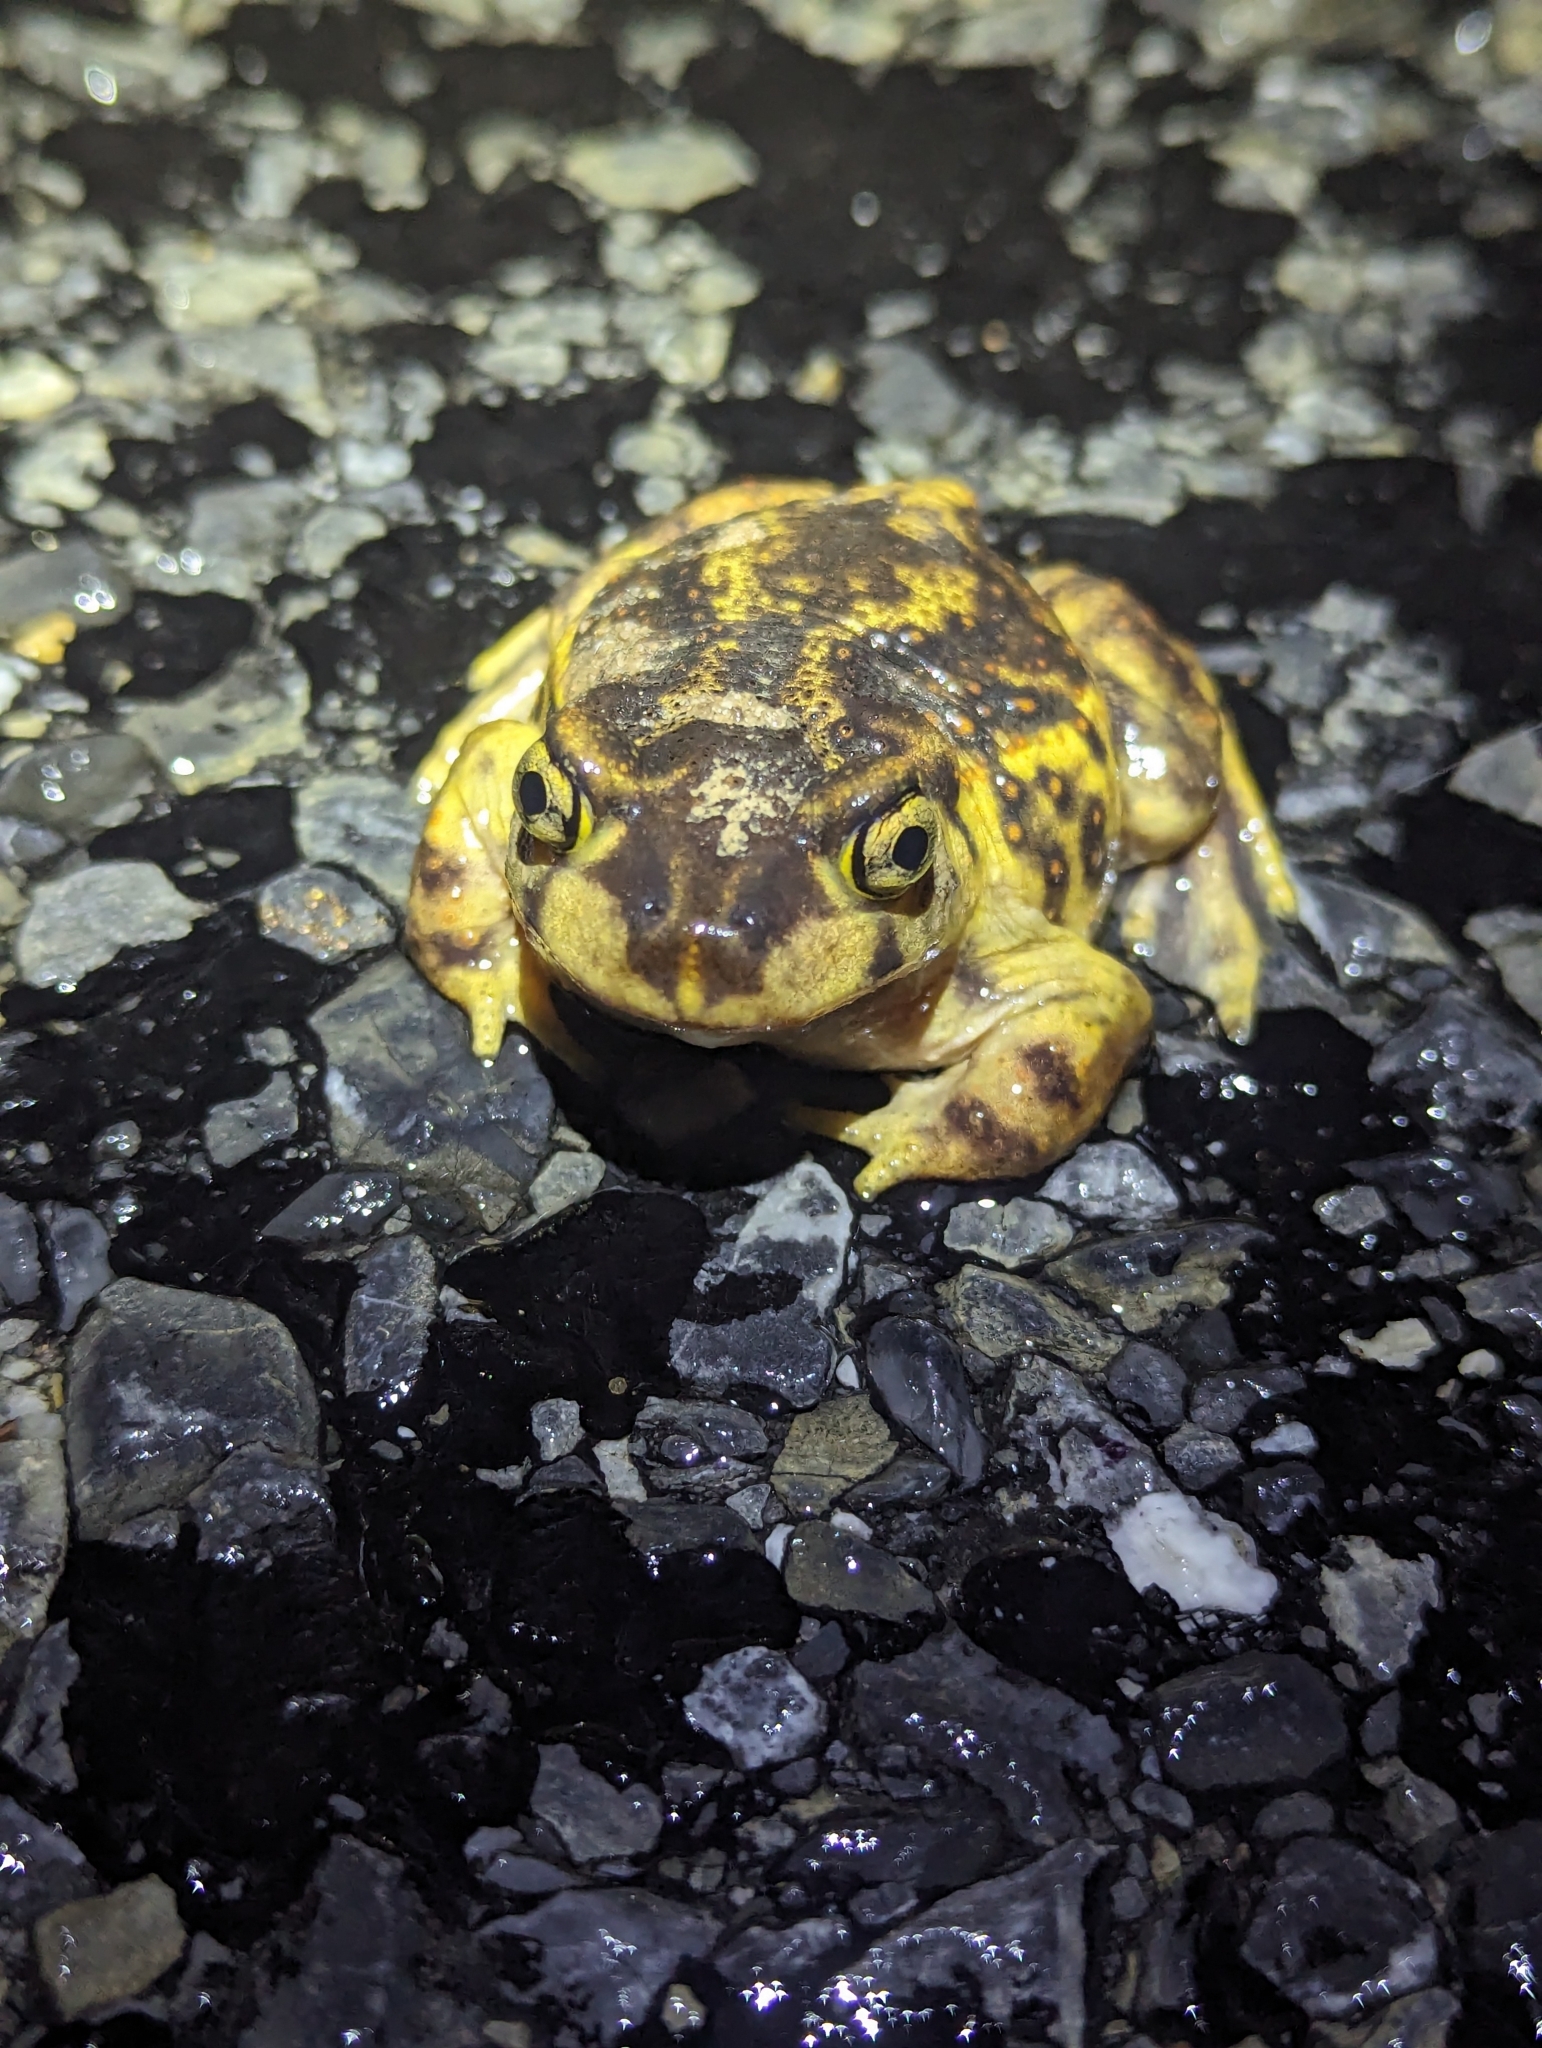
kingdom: Animalia
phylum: Chordata
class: Amphibia
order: Anura
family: Scaphiopodidae
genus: Scaphiopus
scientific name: Scaphiopus holbrookii
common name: Eastern spadefoot toad
